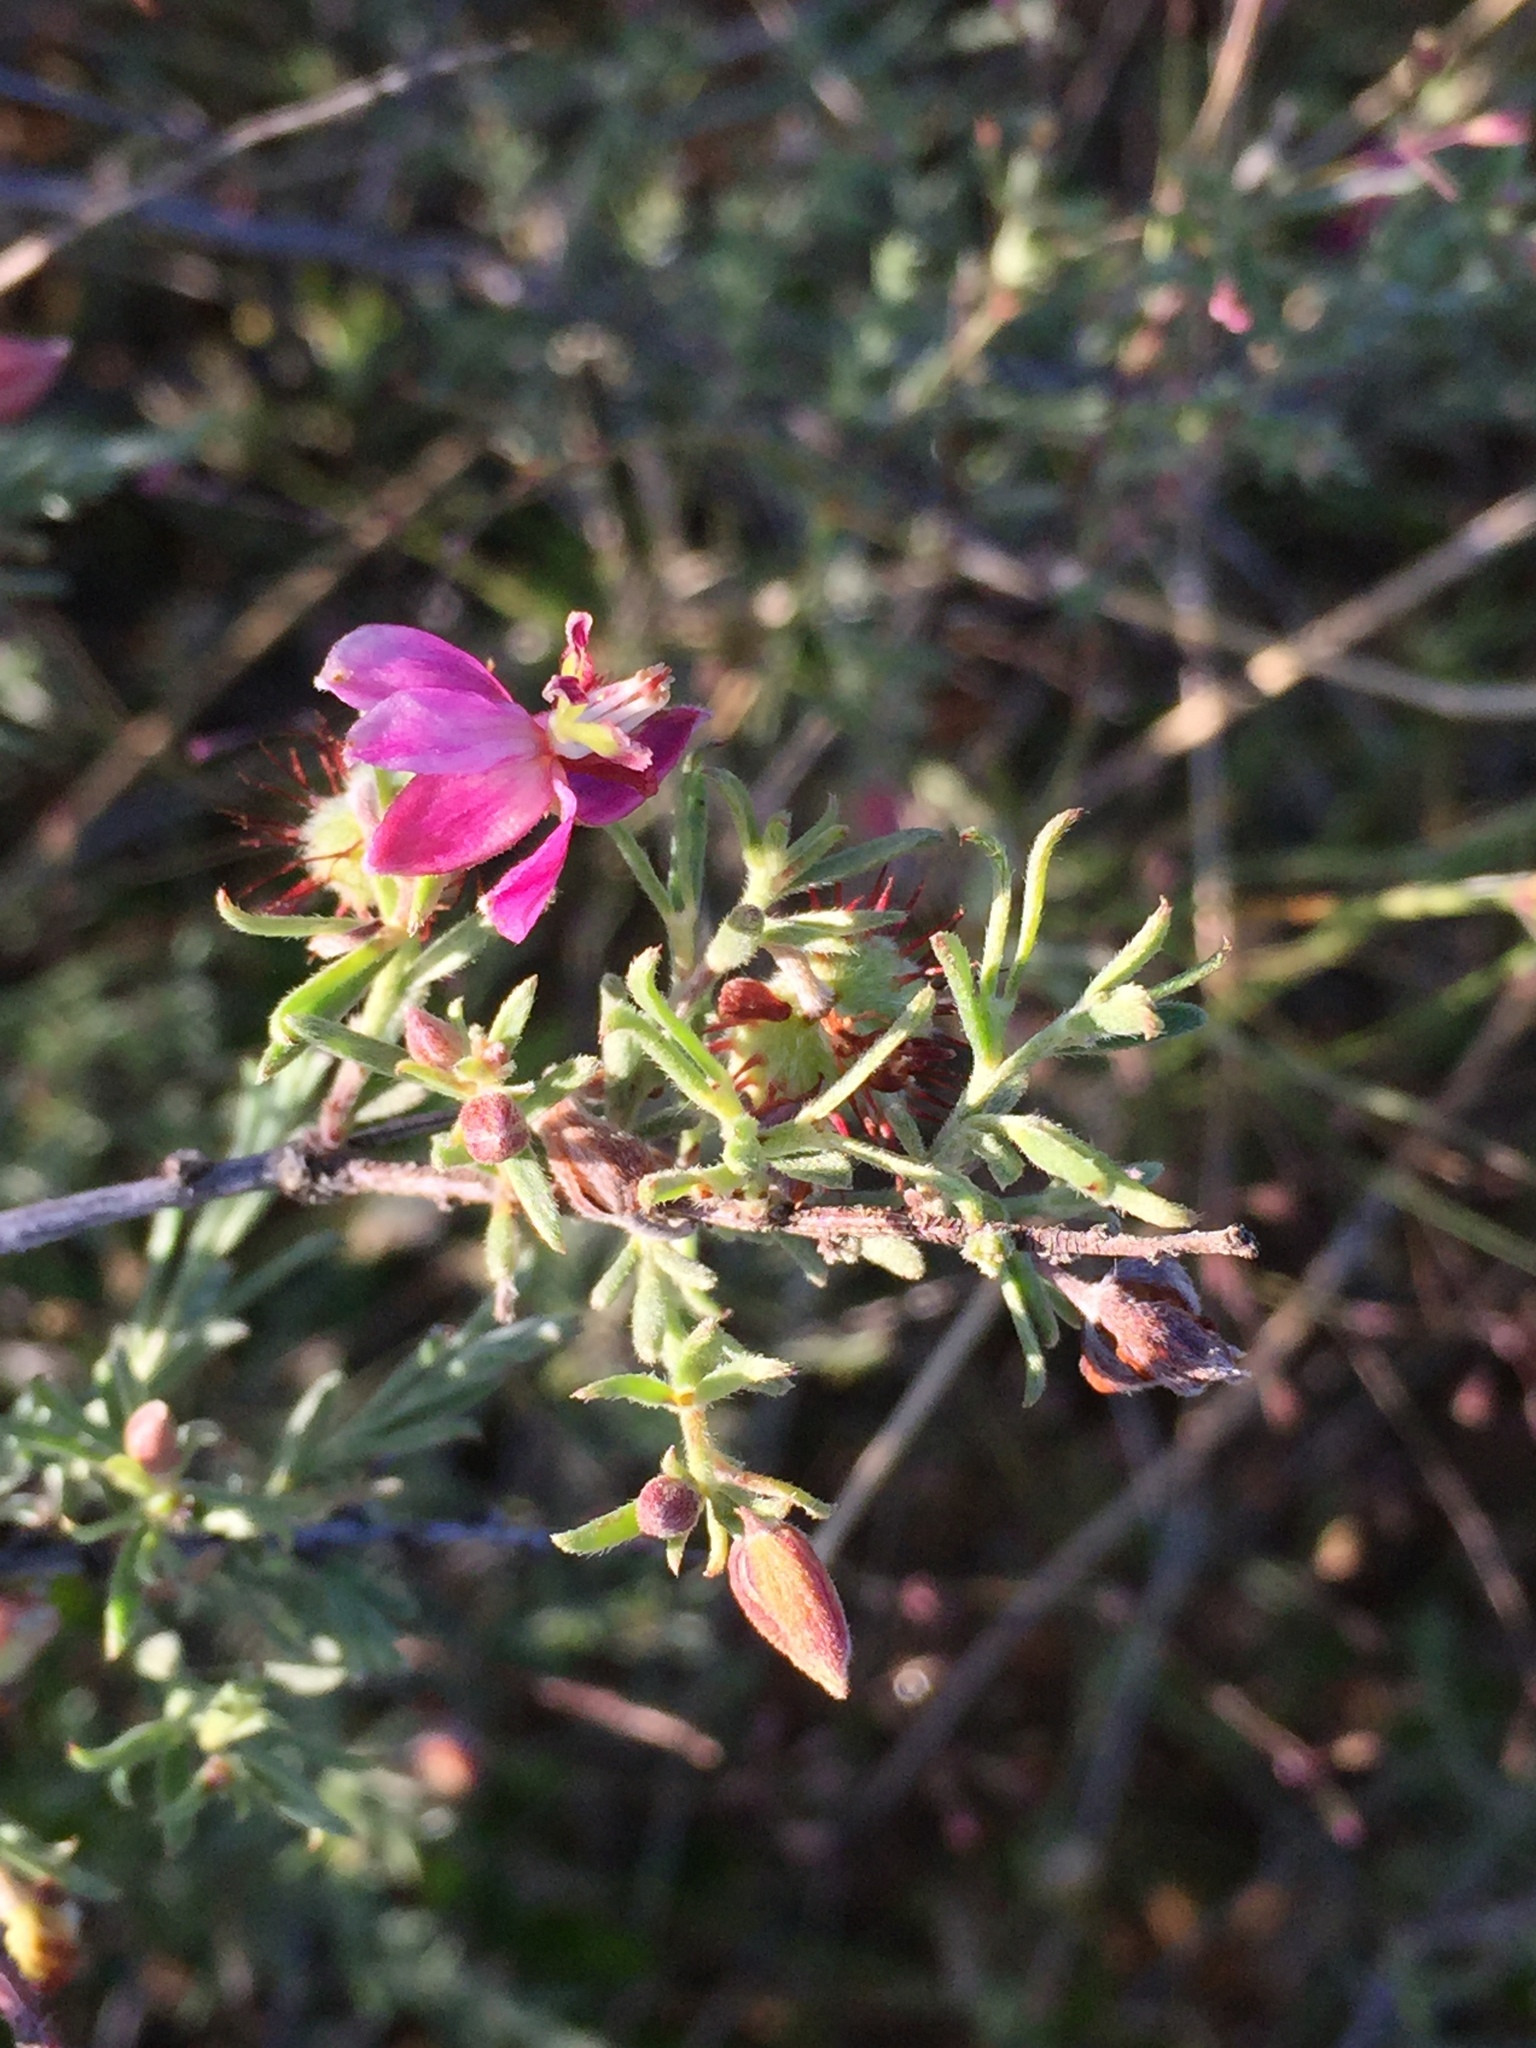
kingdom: Plantae
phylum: Tracheophyta
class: Magnoliopsida
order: Zygophyllales
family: Krameriaceae
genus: Krameria
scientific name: Krameria erecta
